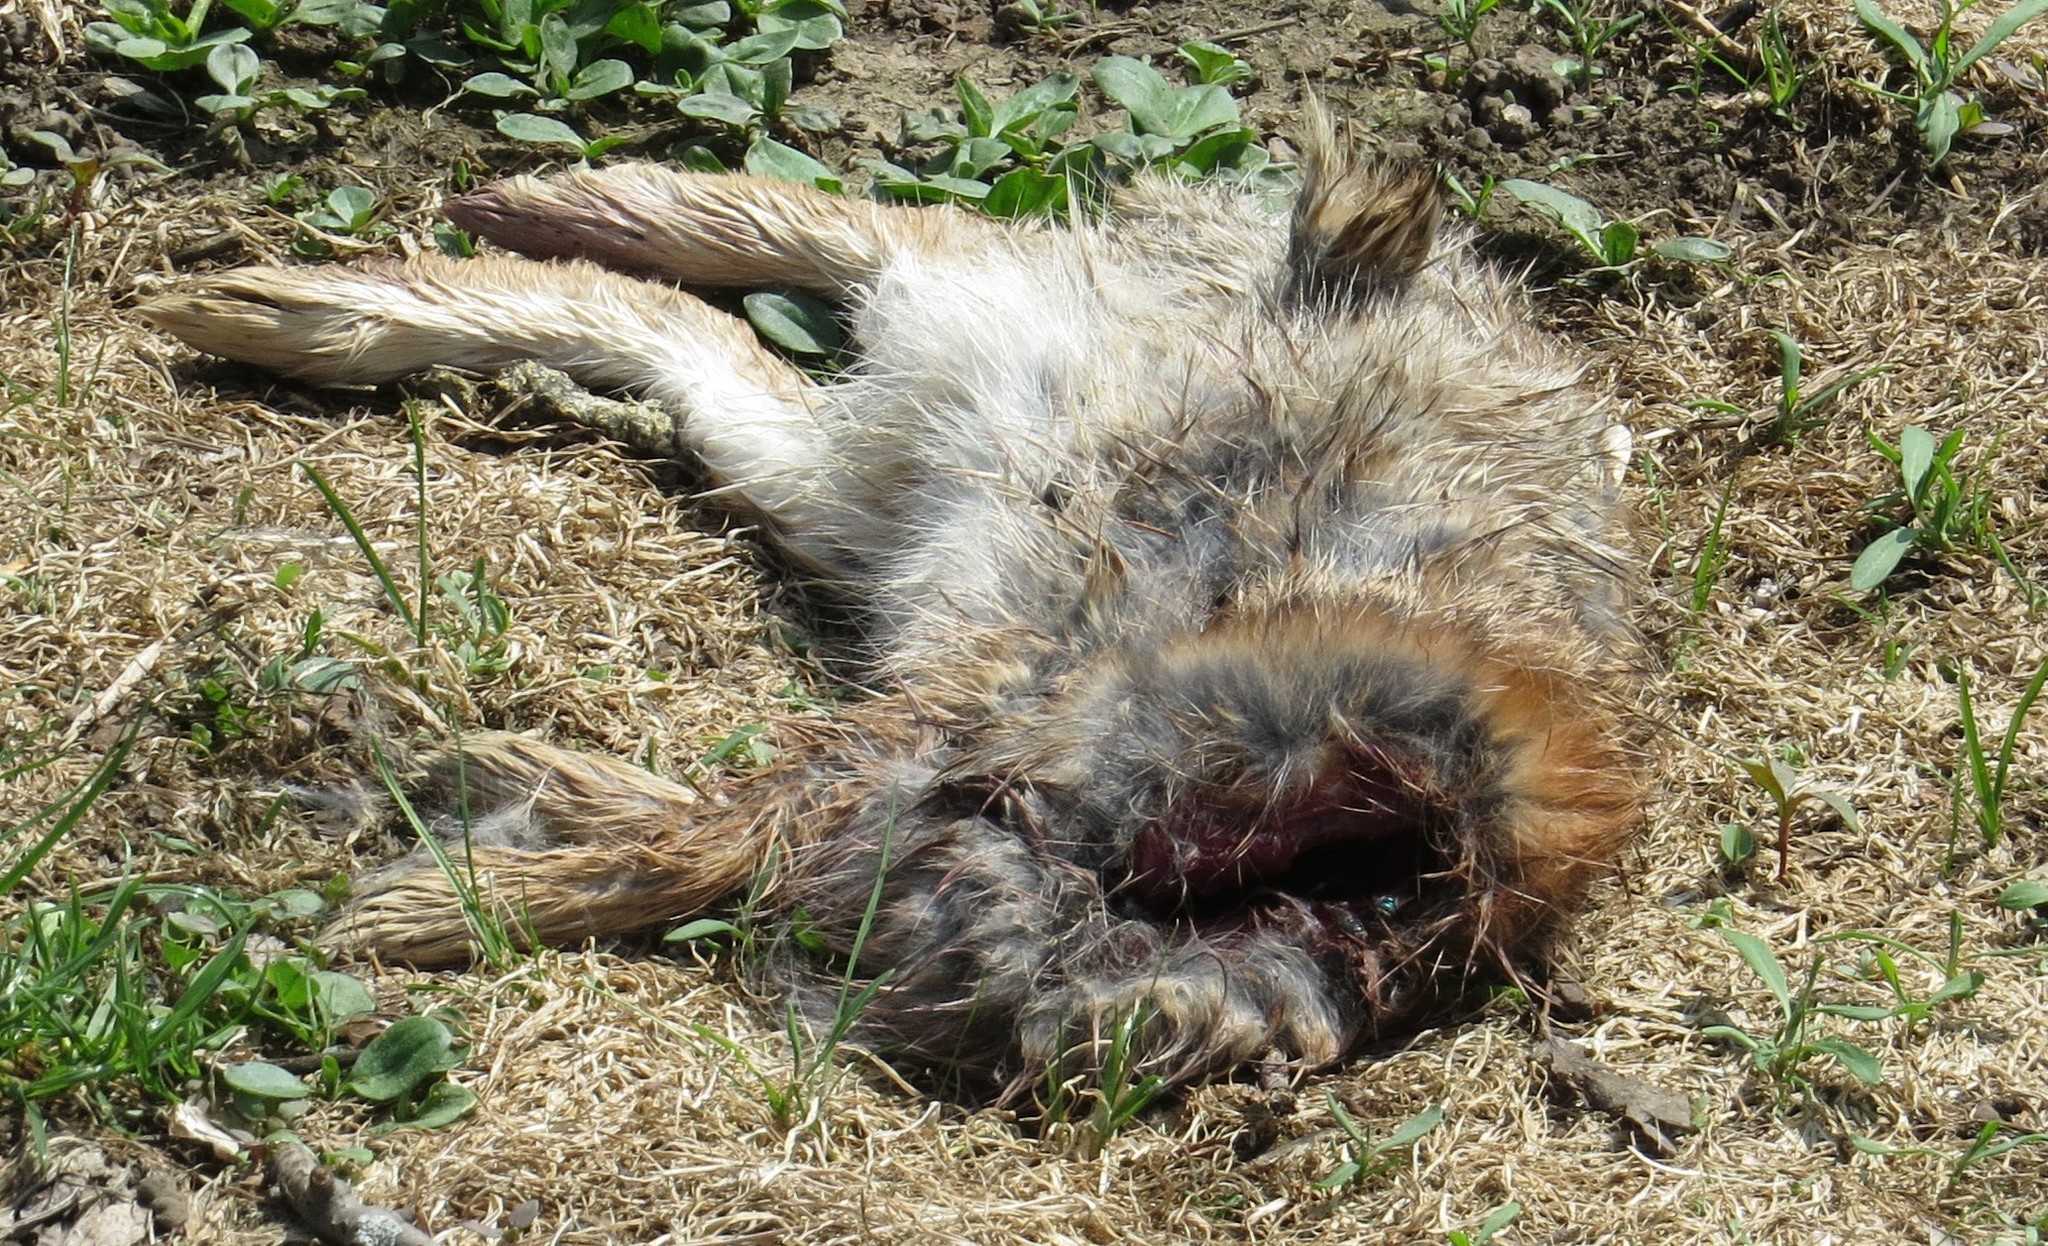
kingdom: Animalia
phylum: Chordata
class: Mammalia
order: Lagomorpha
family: Leporidae
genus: Sylvilagus
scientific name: Sylvilagus floridanus
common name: Eastern cottontail
